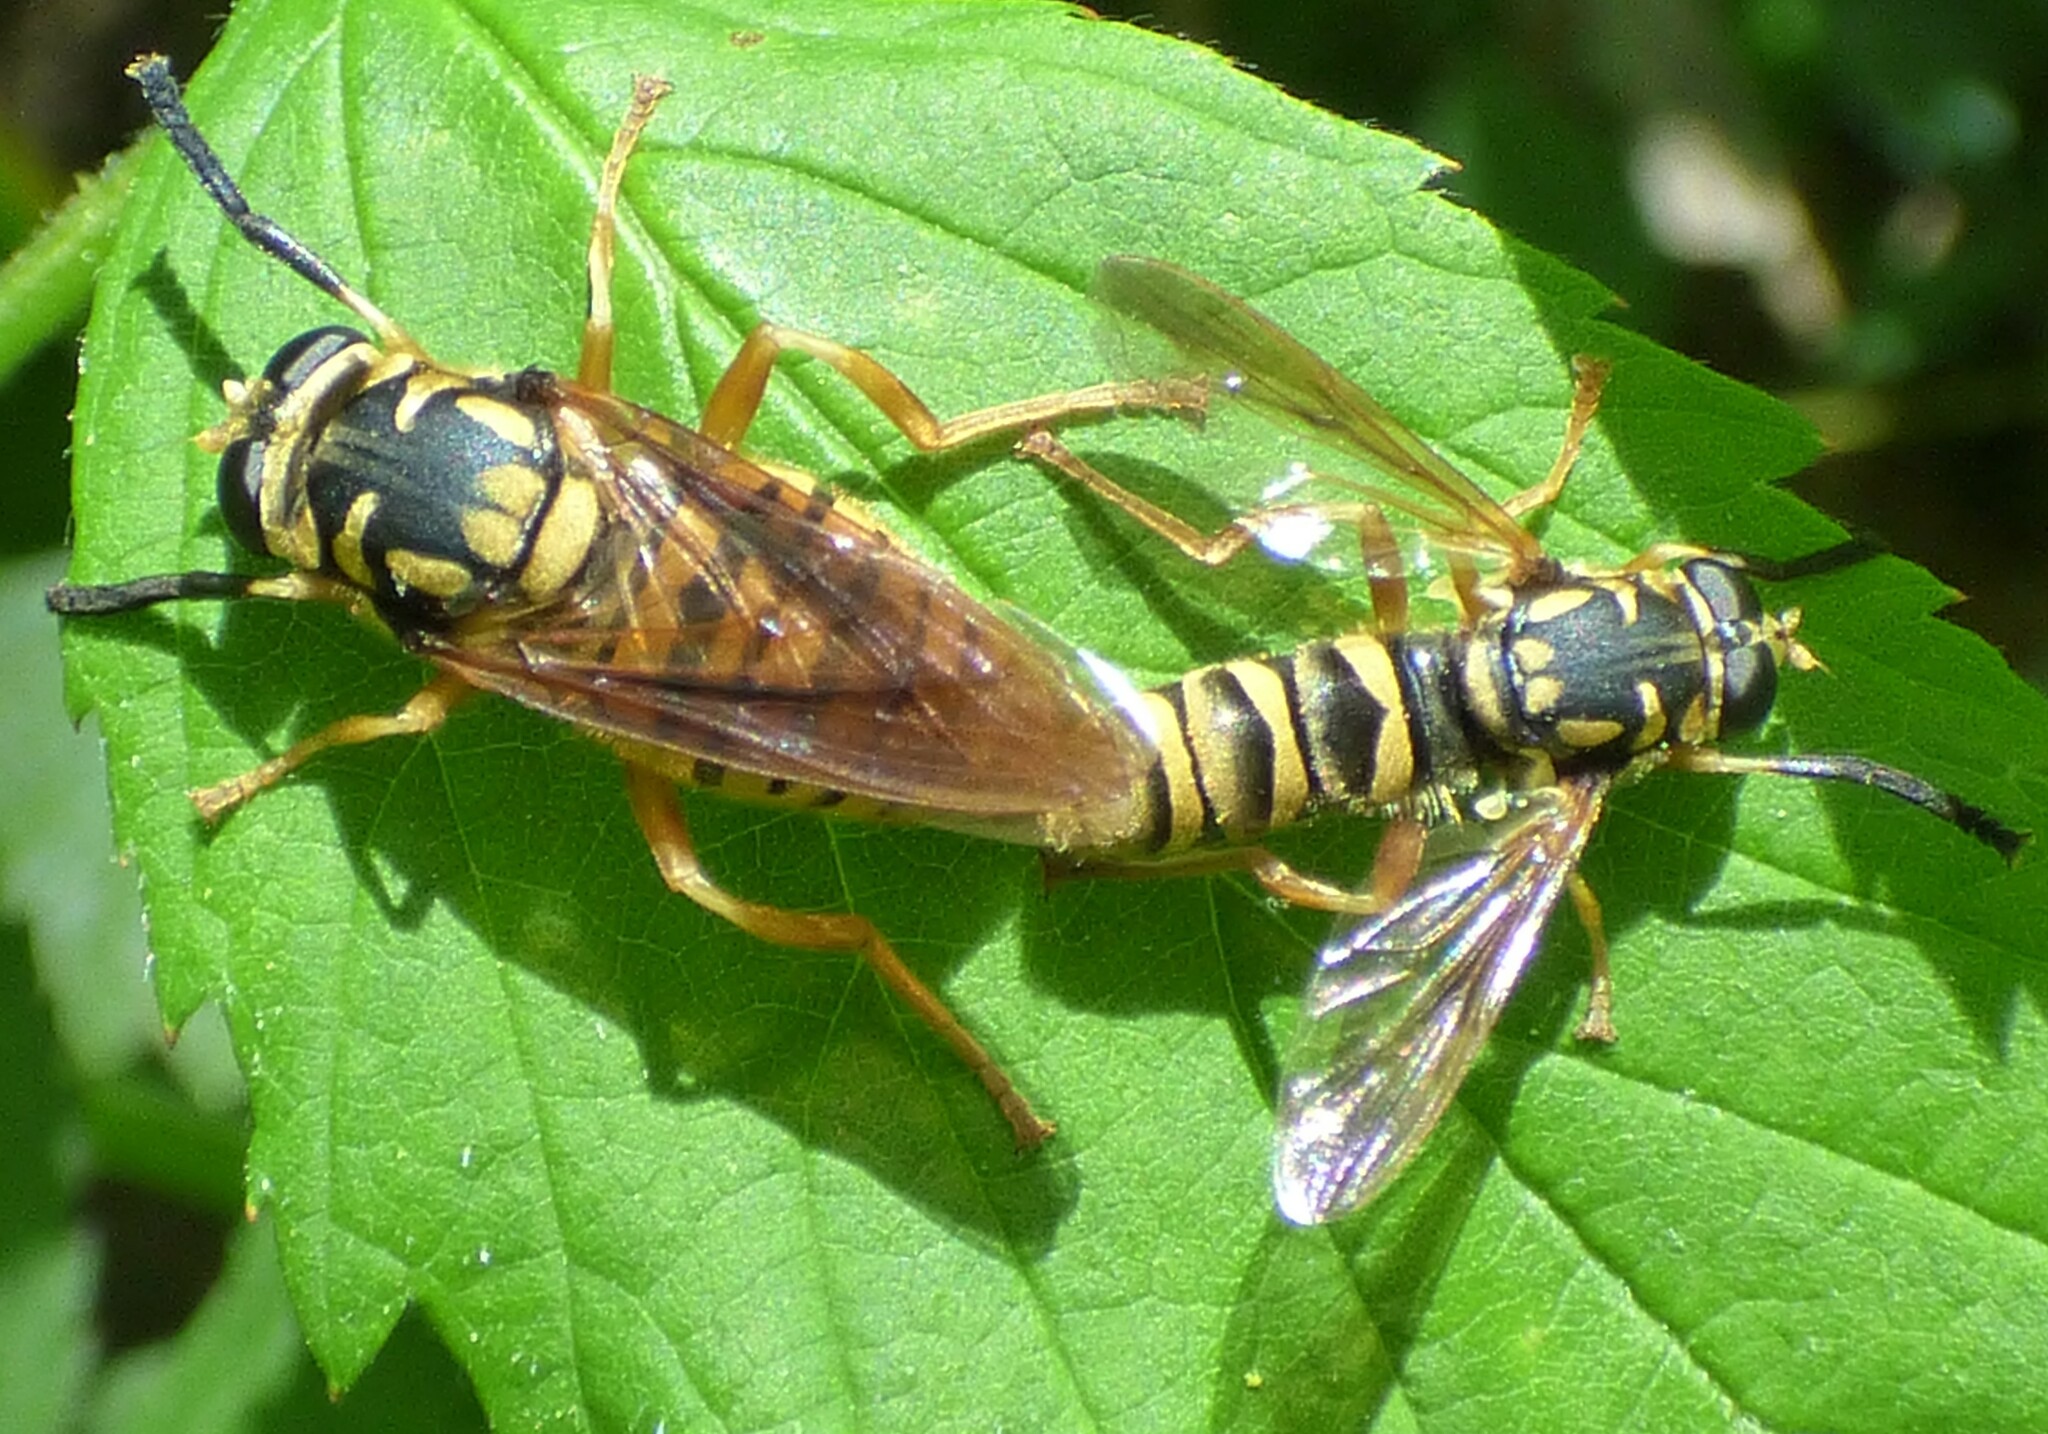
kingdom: Animalia
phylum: Arthropoda
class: Insecta
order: Diptera
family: Syrphidae
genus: Temnostoma
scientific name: Temnostoma daochum
